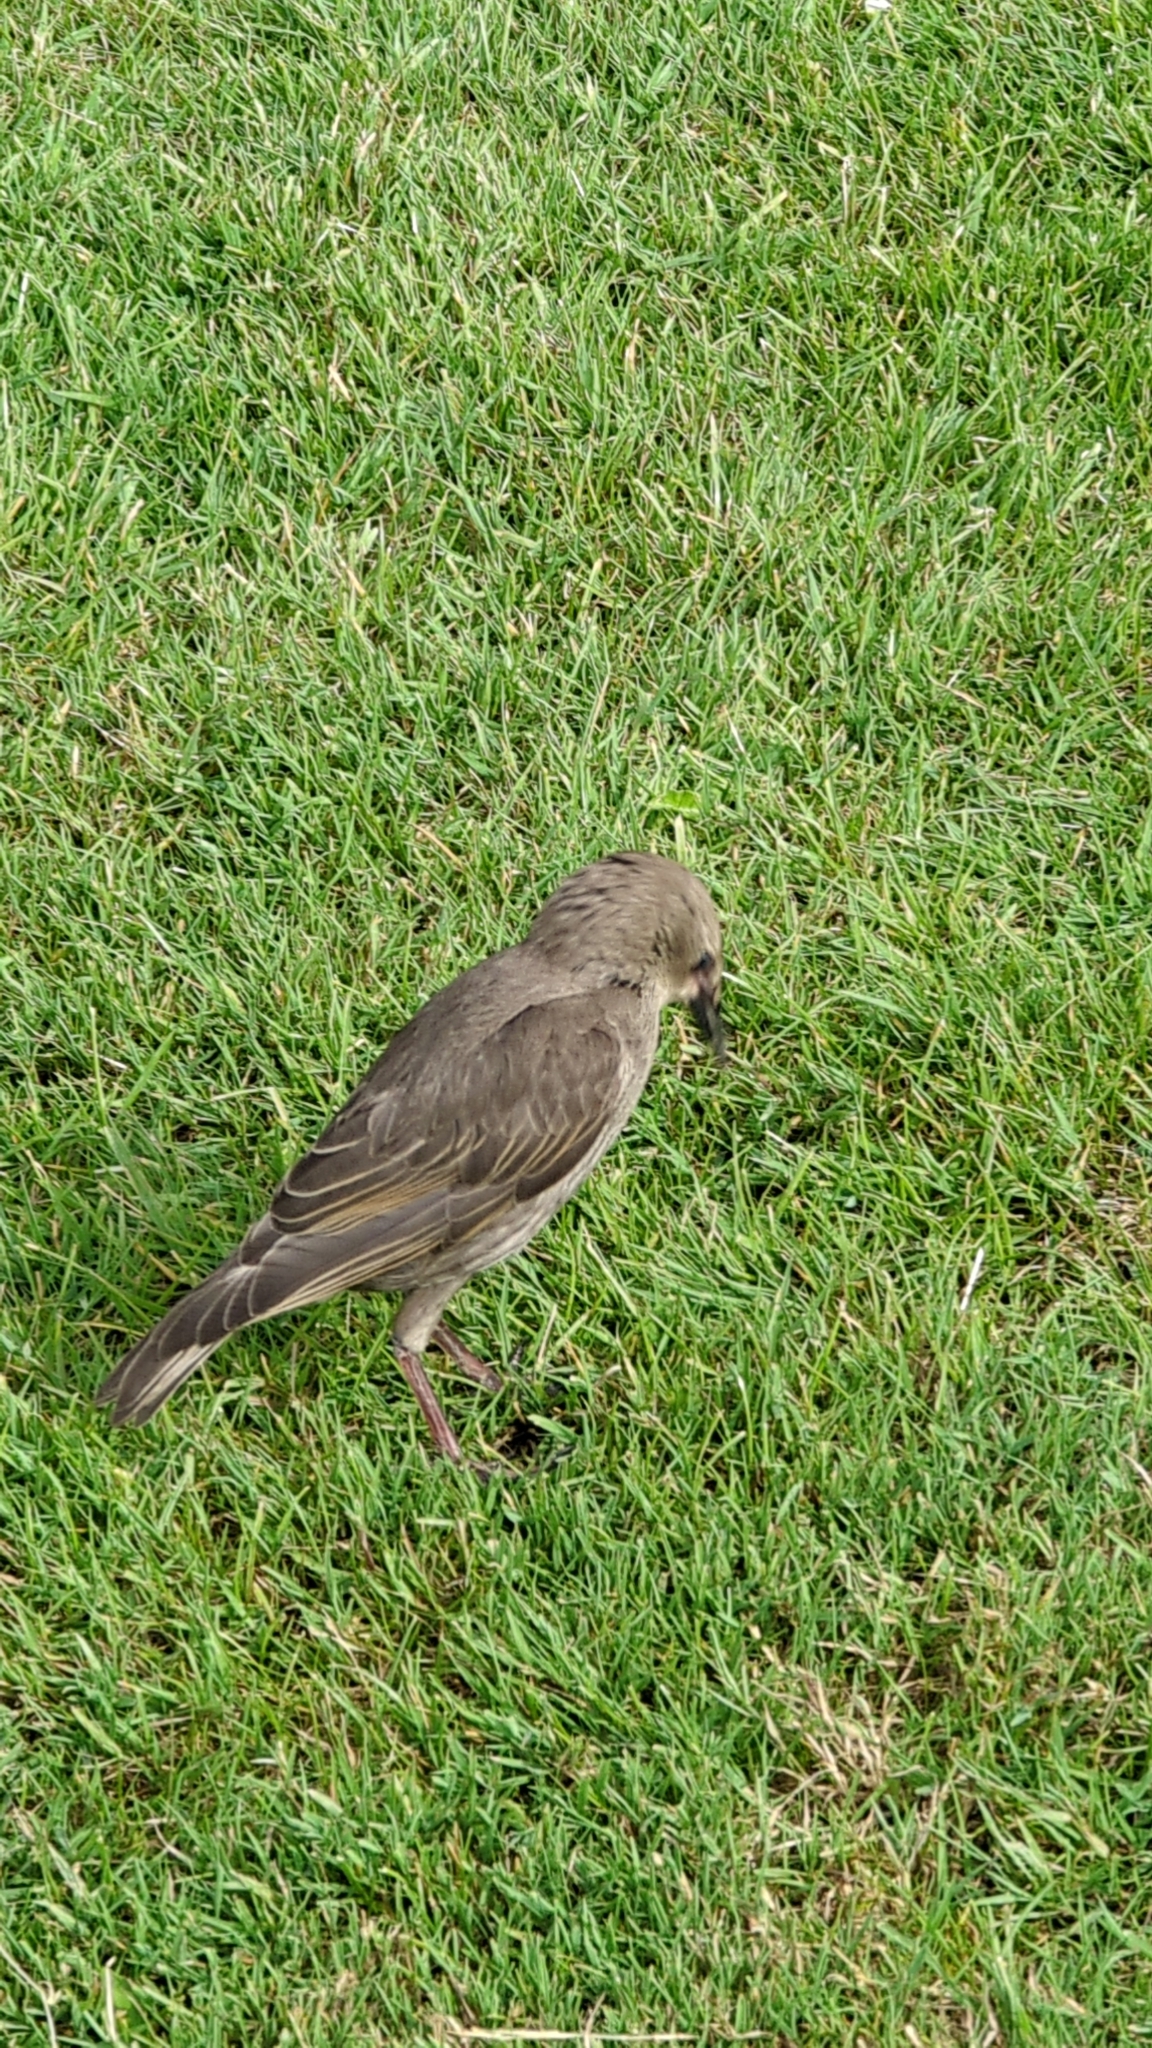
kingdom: Animalia
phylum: Chordata
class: Aves
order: Passeriformes
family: Sturnidae
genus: Sturnus
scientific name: Sturnus vulgaris
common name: Common starling
